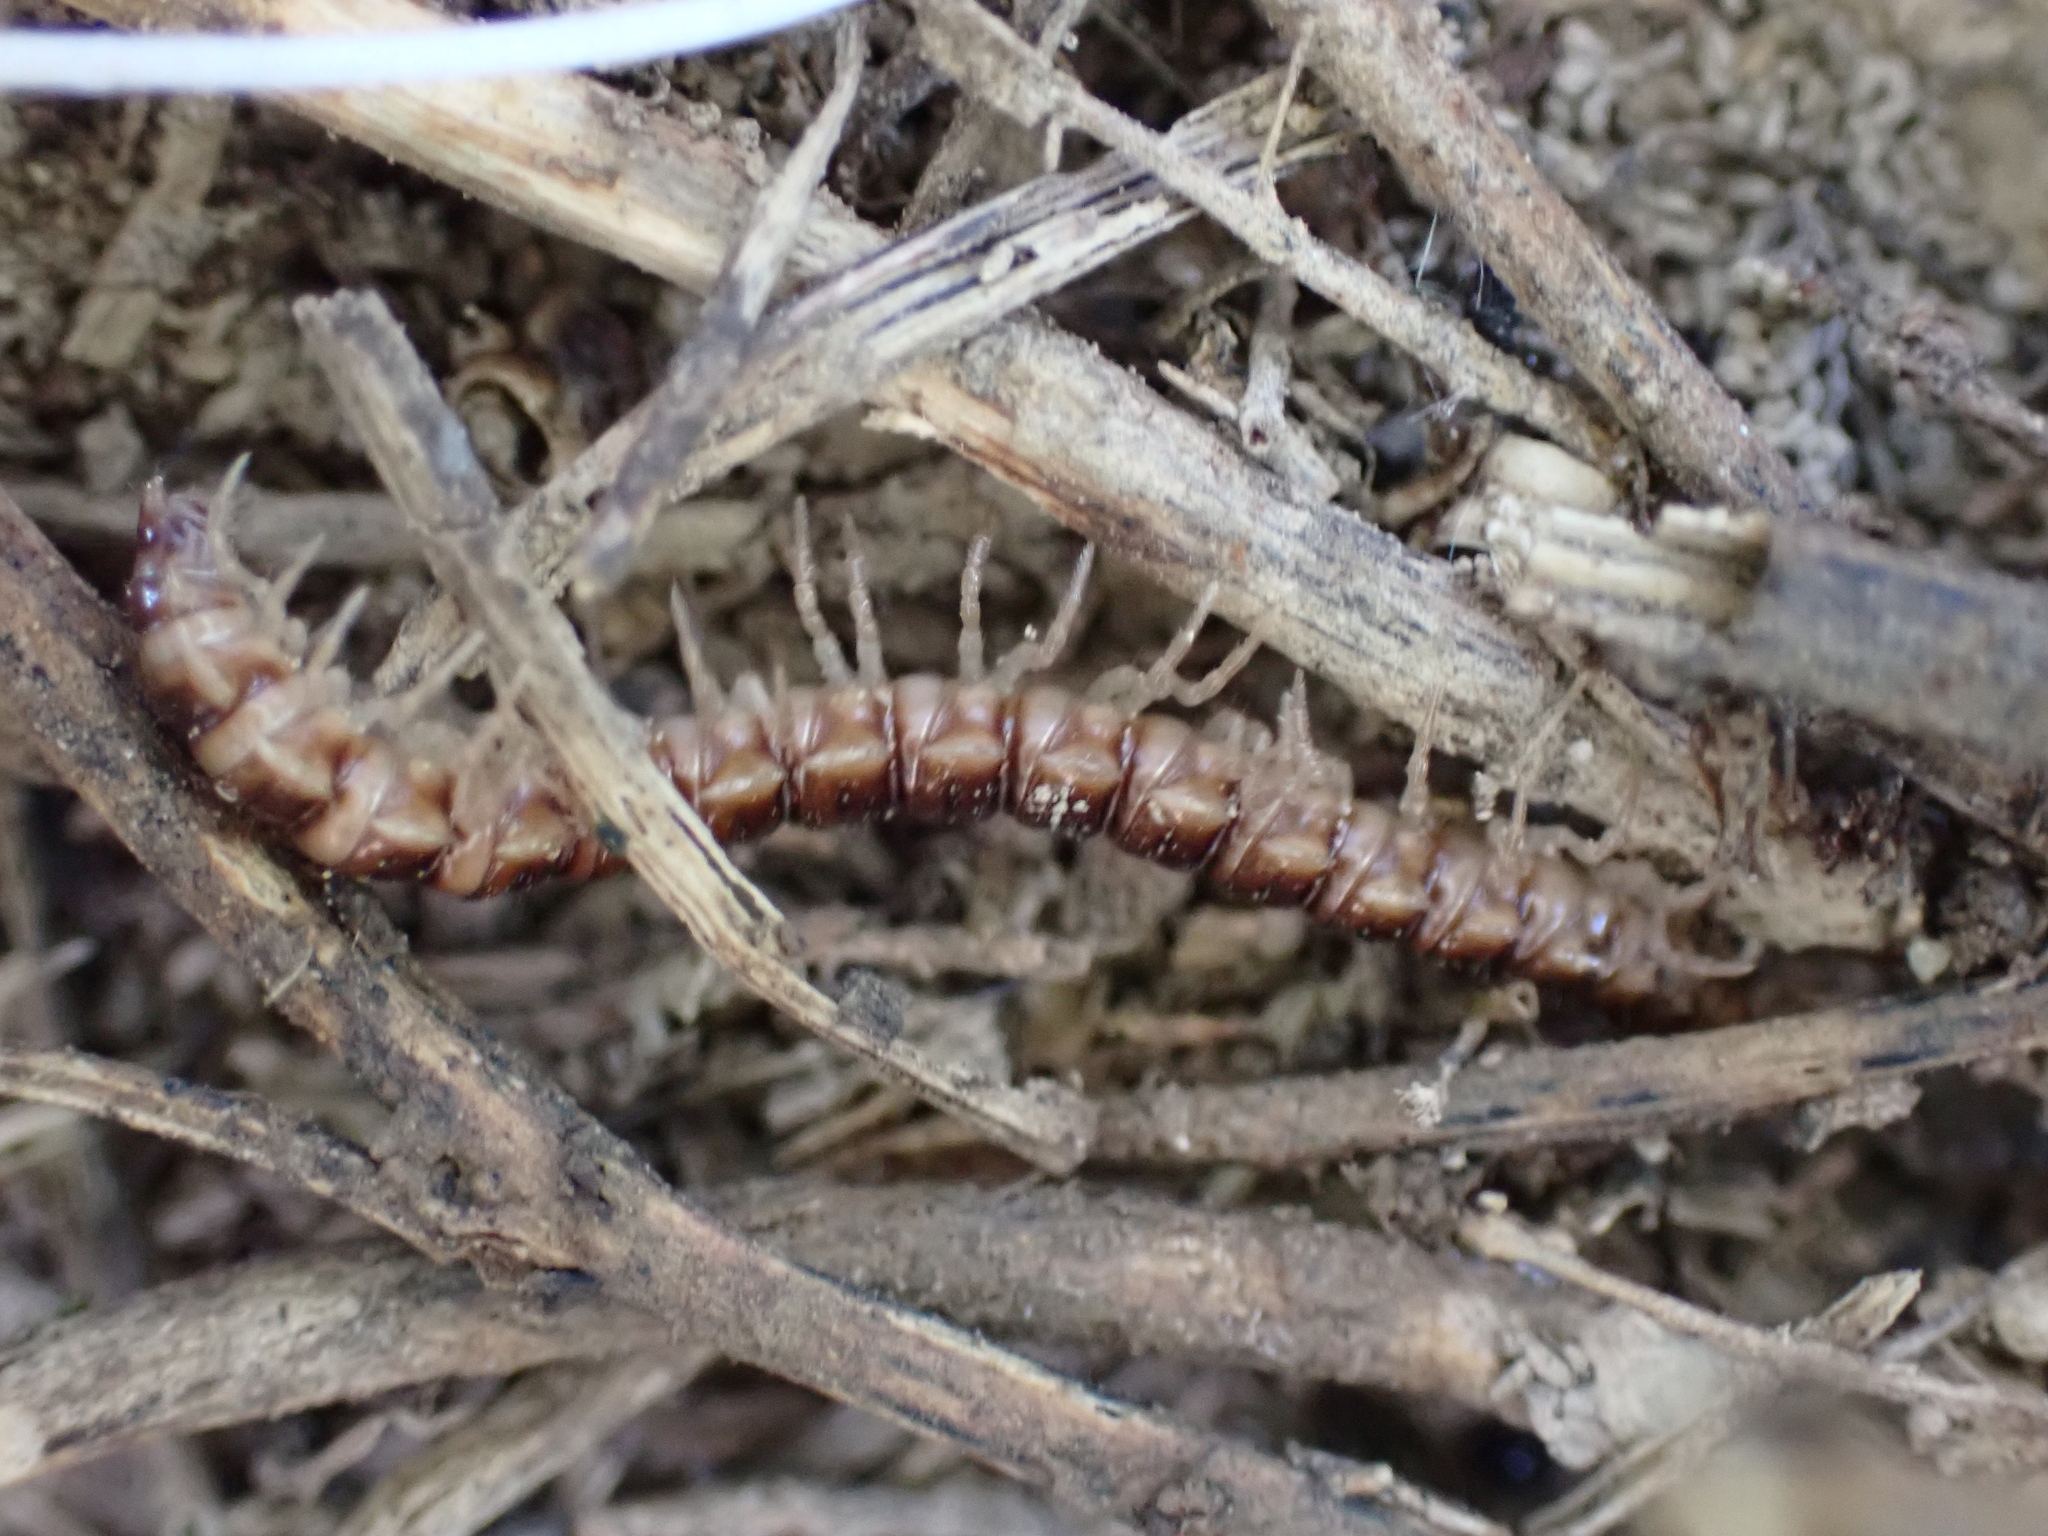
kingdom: Animalia
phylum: Arthropoda
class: Diplopoda
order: Polydesmida
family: Paradoxosomatidae
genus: Oxidus
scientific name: Oxidus gracilis
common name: Greenhouse millipede
